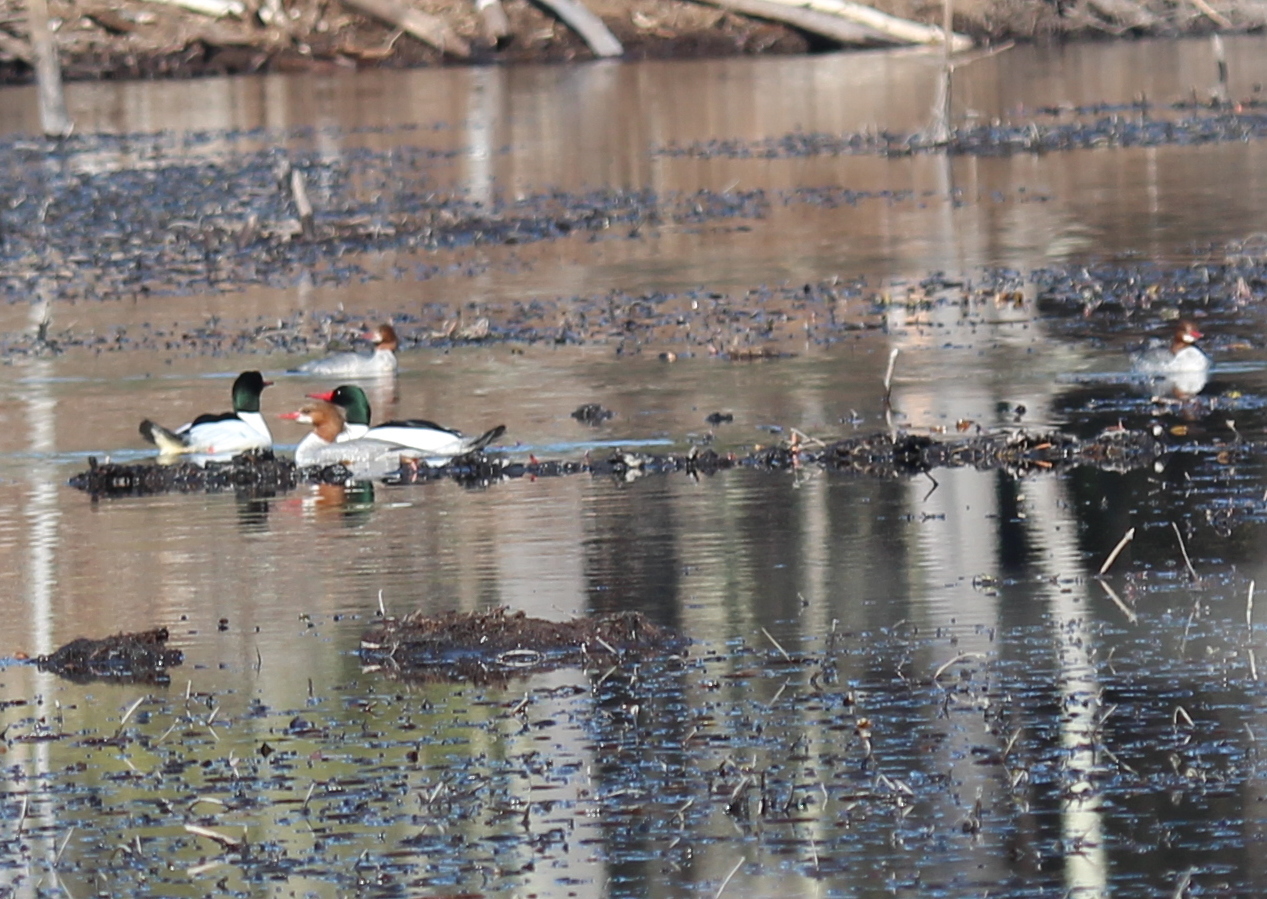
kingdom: Animalia
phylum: Chordata
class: Aves
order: Anseriformes
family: Anatidae
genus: Mergus
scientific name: Mergus merganser
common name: Common merganser
